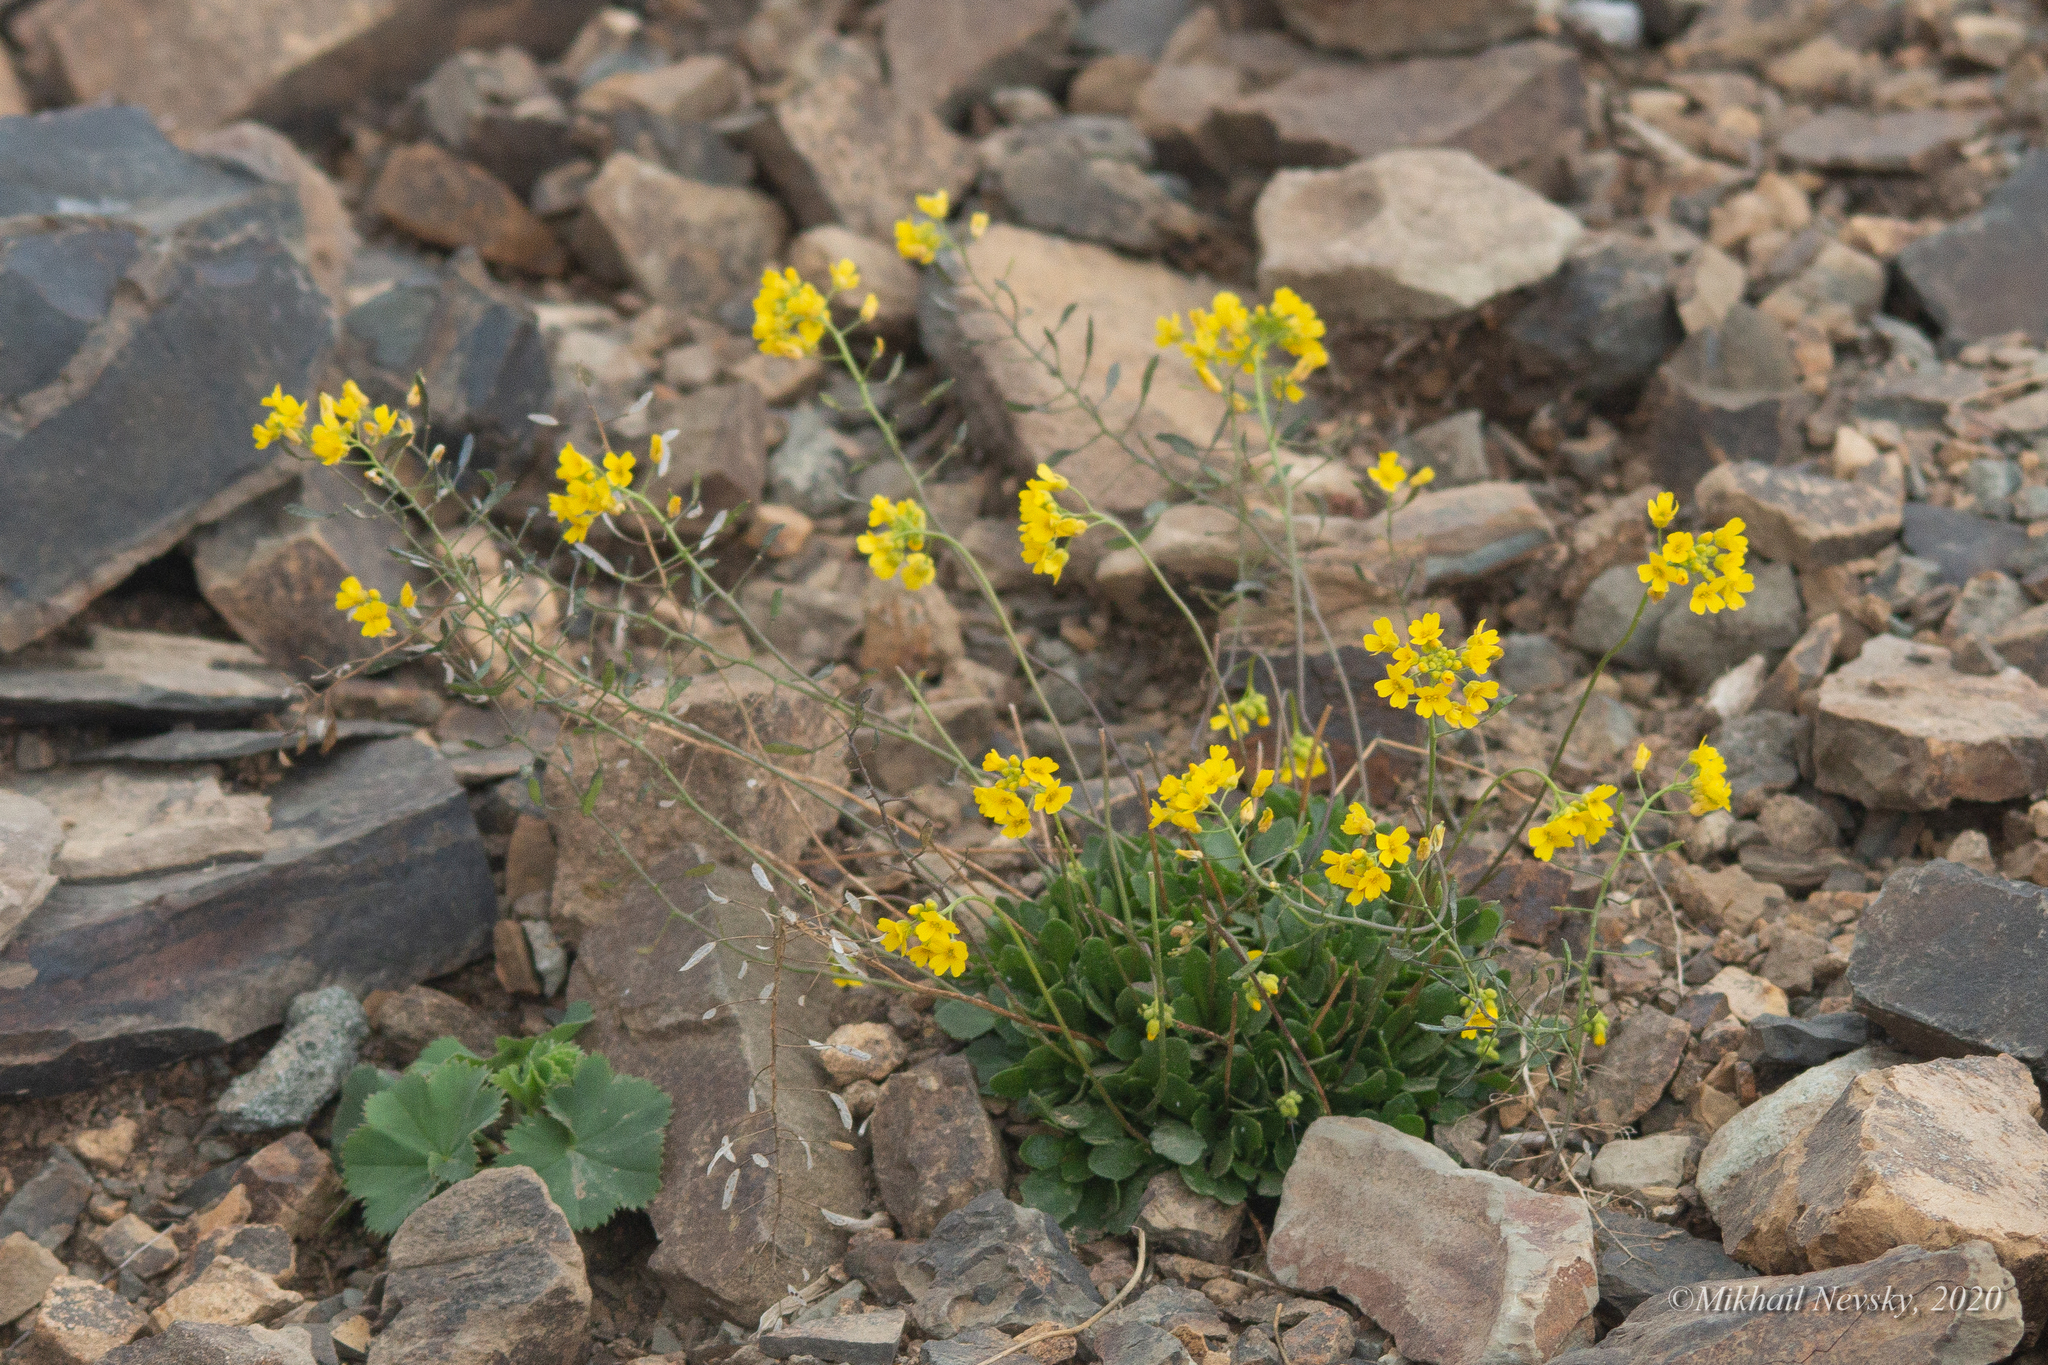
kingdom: Plantae
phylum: Tracheophyta
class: Magnoliopsida
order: Brassicales
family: Brassicaceae
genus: Draba
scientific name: Draba hispida
